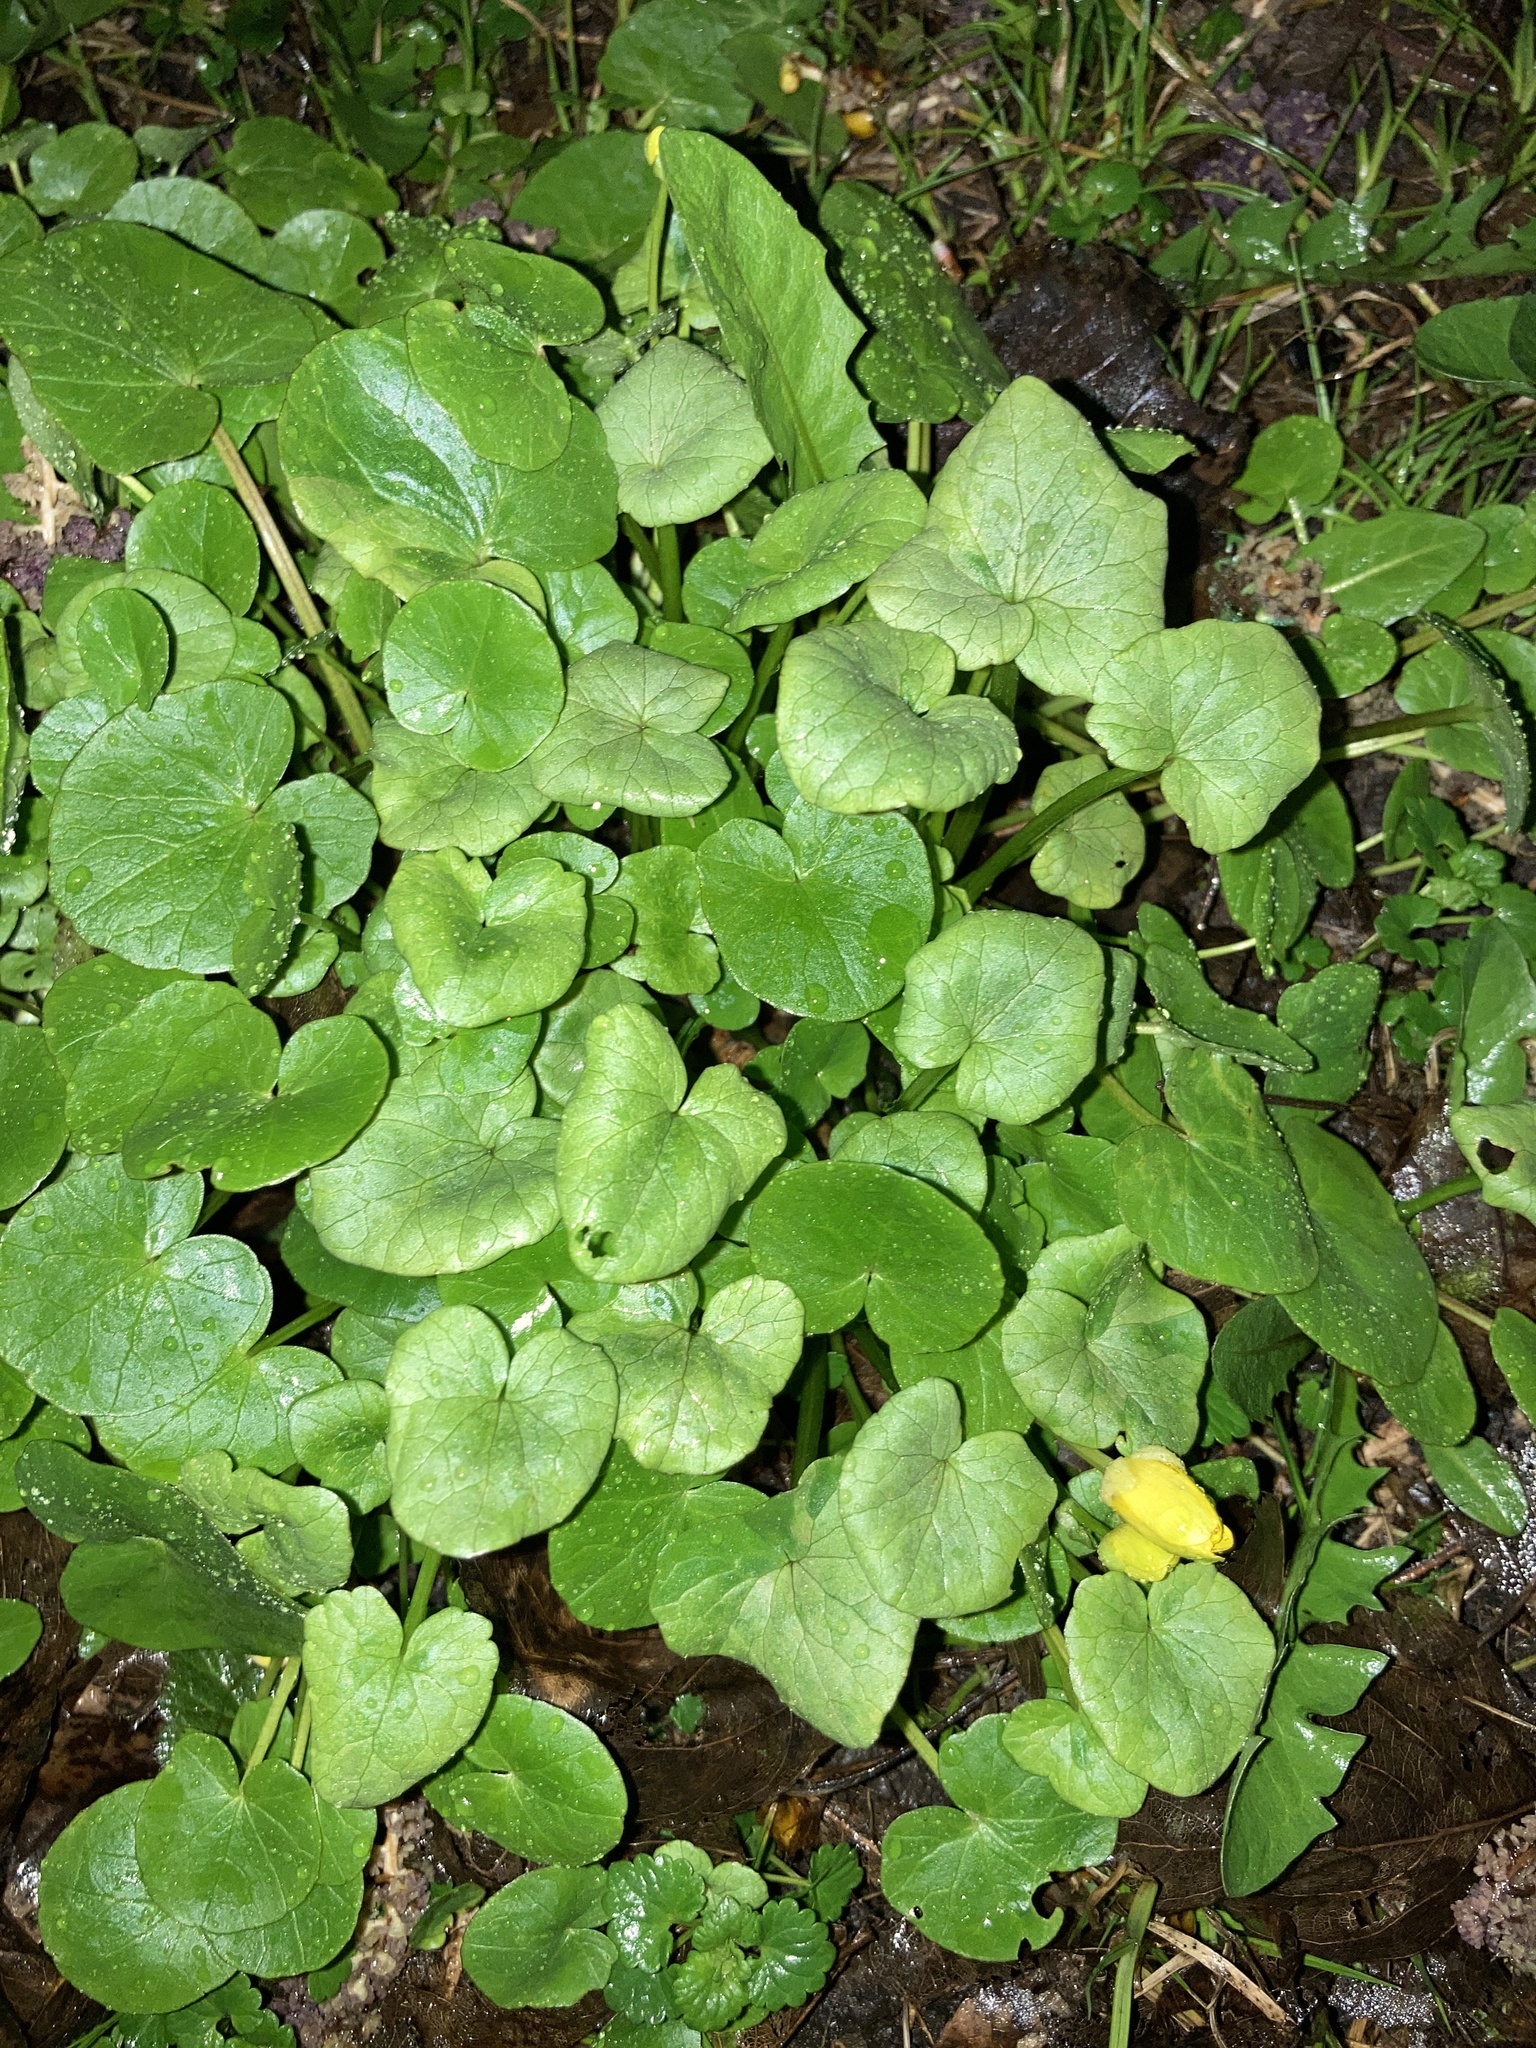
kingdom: Plantae
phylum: Tracheophyta
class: Magnoliopsida
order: Ranunculales
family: Ranunculaceae
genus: Ficaria
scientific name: Ficaria verna
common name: Lesser celandine
